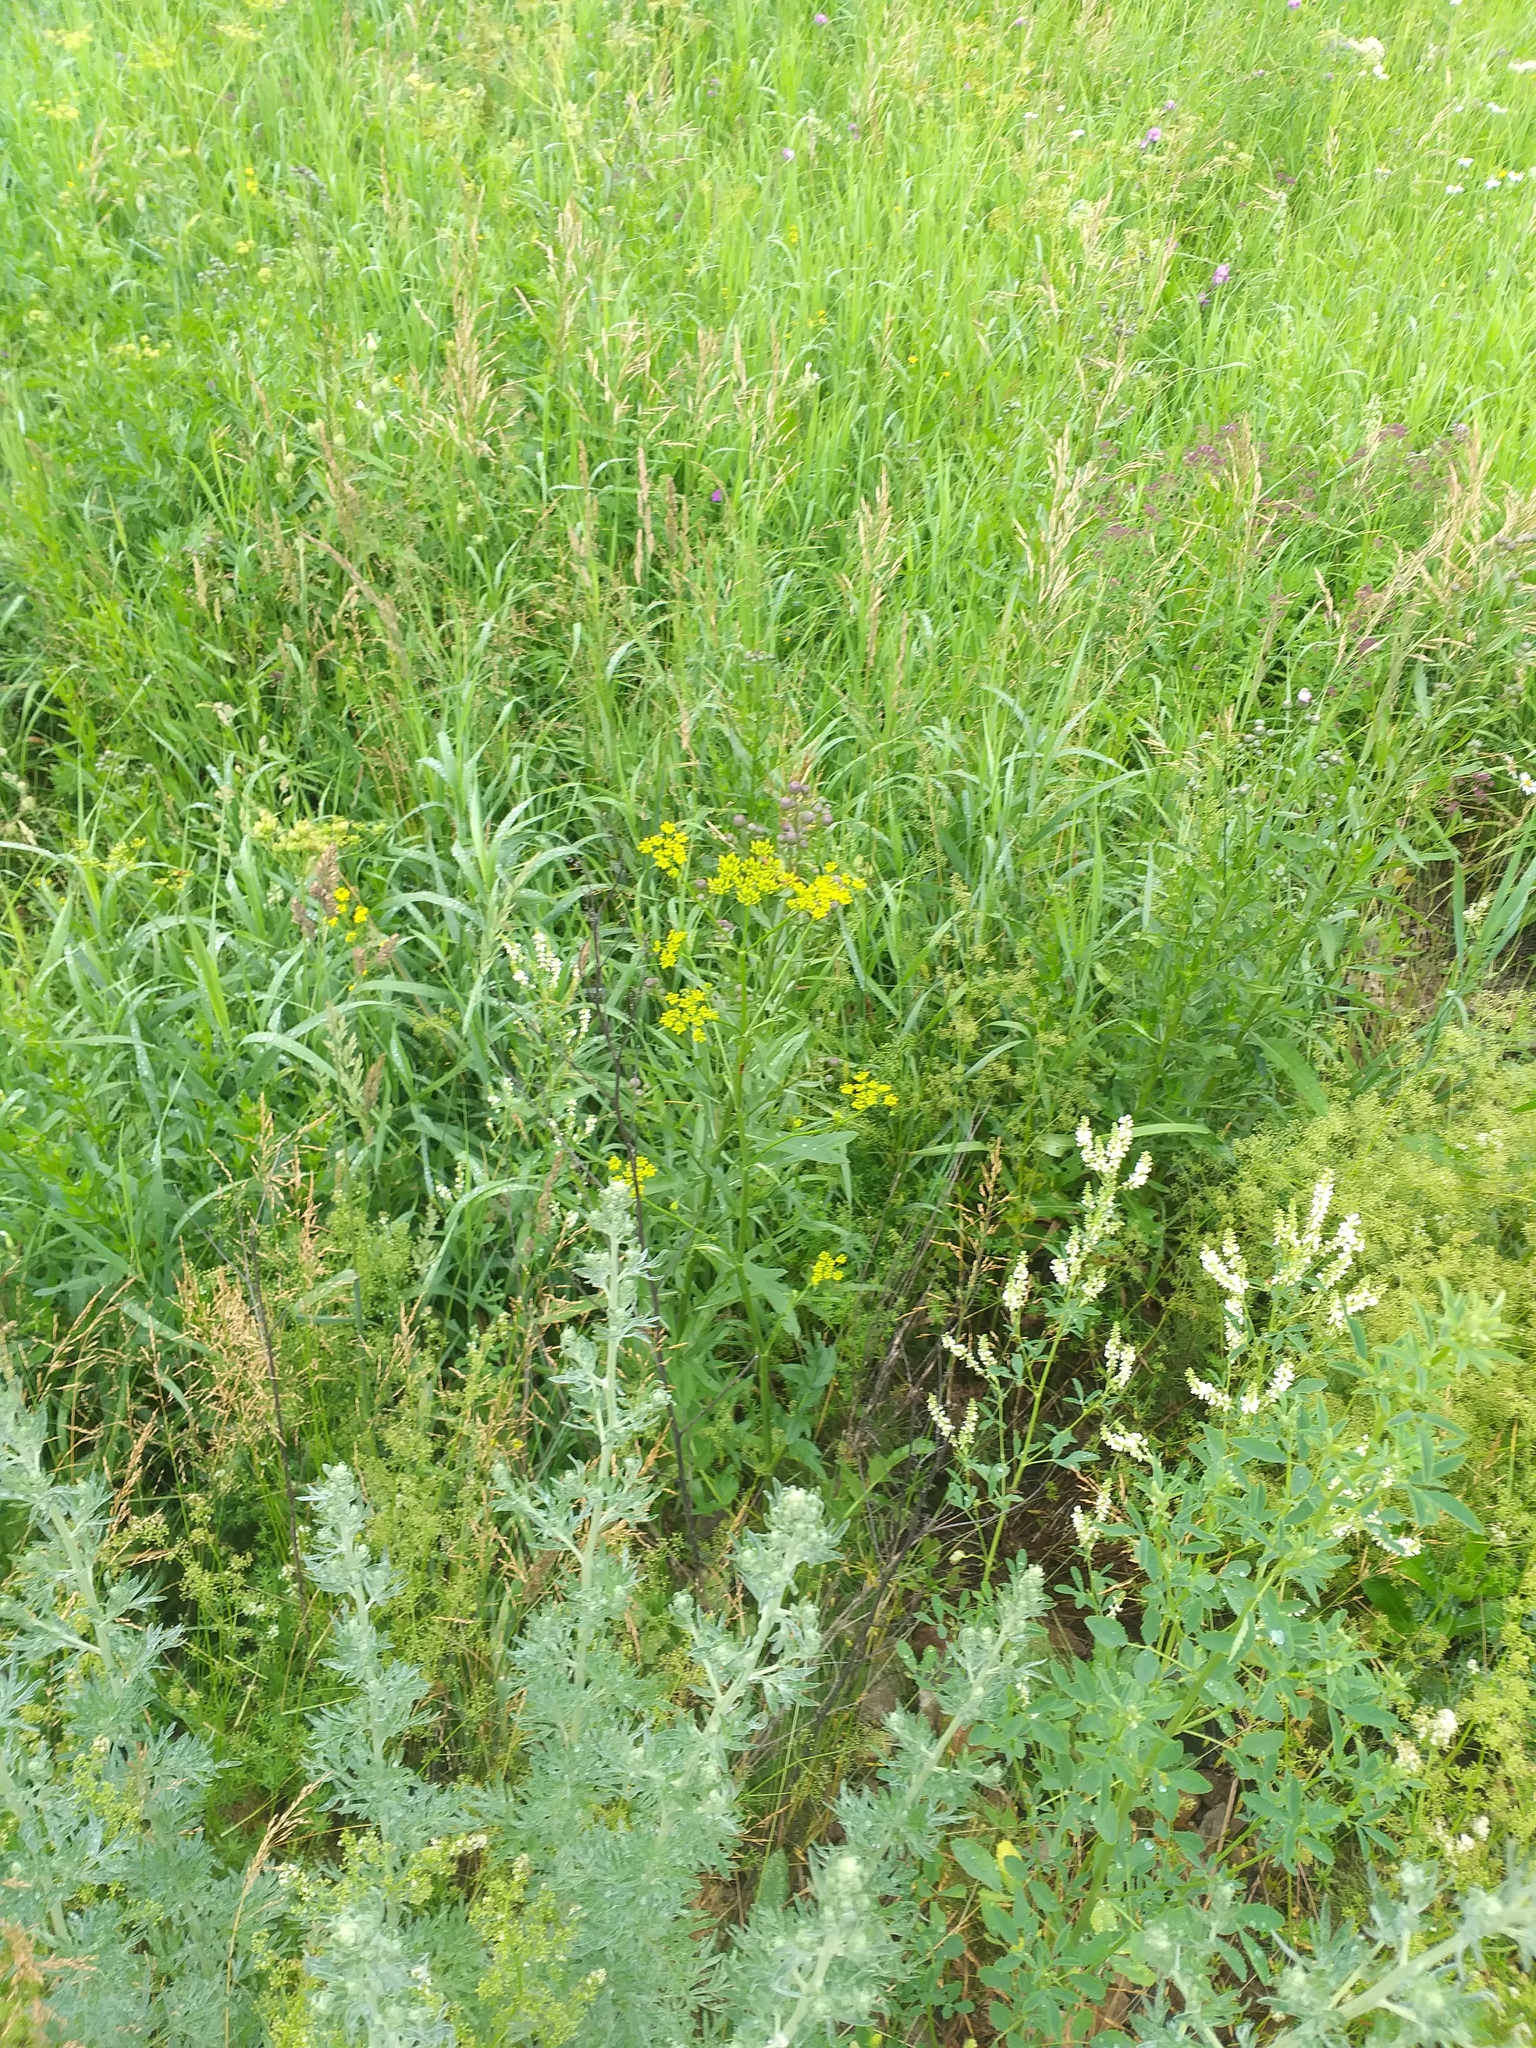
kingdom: Plantae
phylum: Tracheophyta
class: Magnoliopsida
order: Apiales
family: Apiaceae
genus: Pastinaca
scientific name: Pastinaca sativa
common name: Wild parsnip
